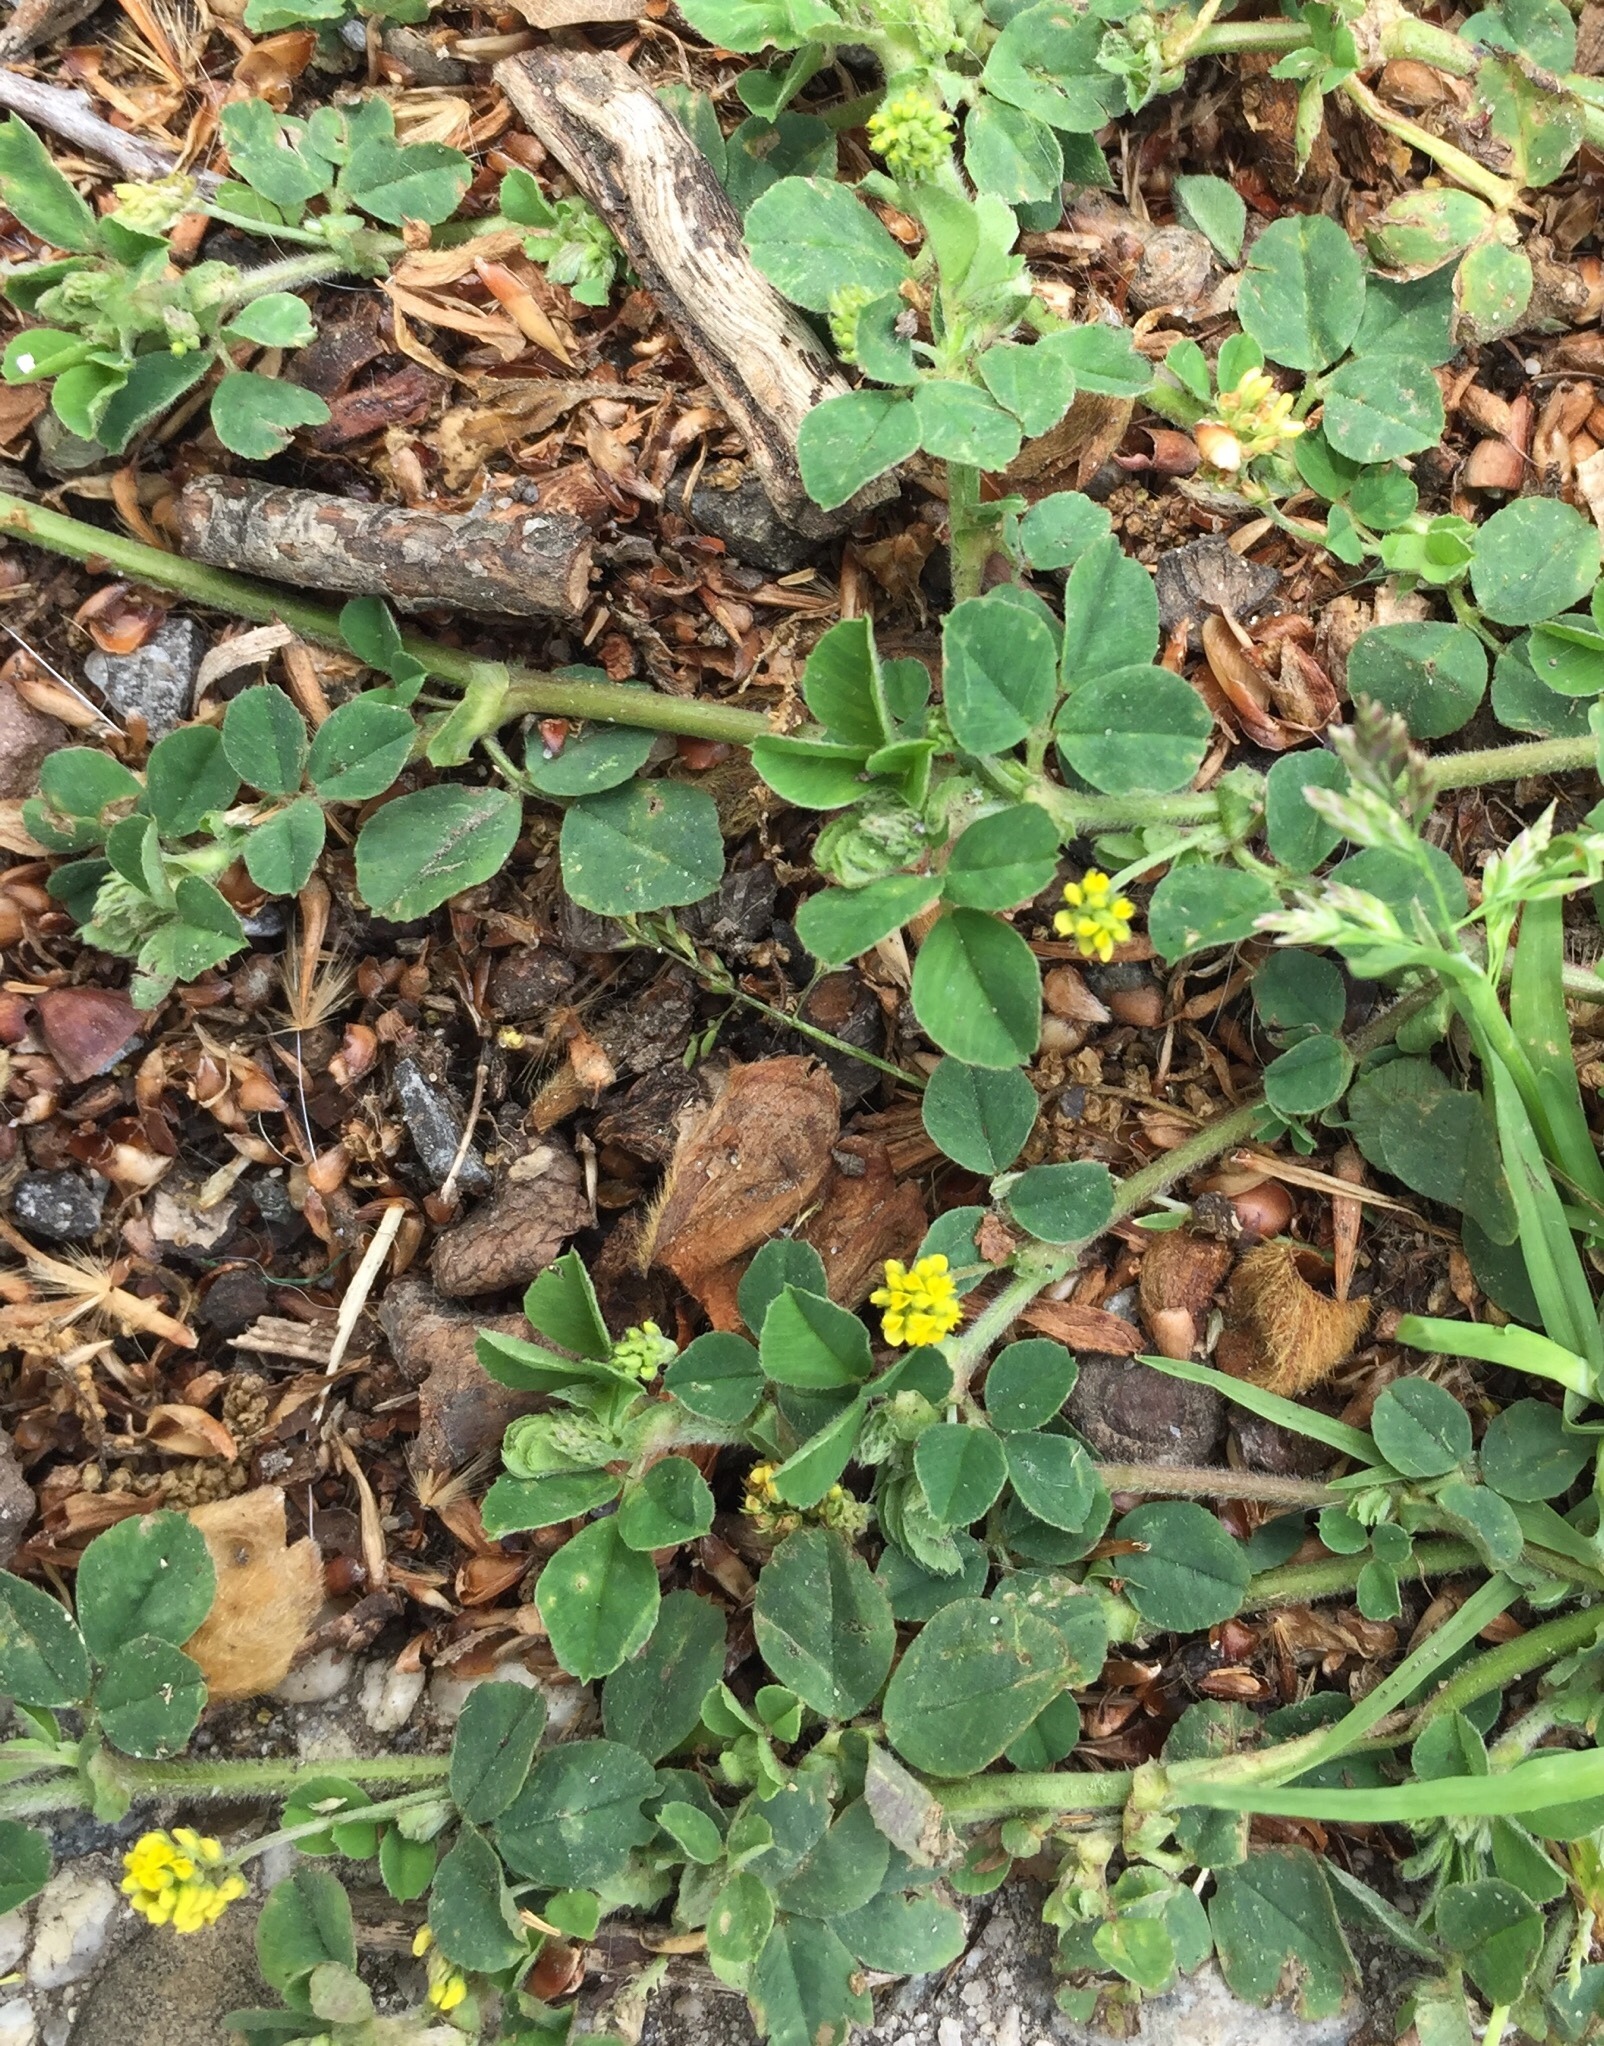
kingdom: Plantae
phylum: Tracheophyta
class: Magnoliopsida
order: Fabales
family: Fabaceae
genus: Medicago
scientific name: Medicago lupulina
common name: Black medick
